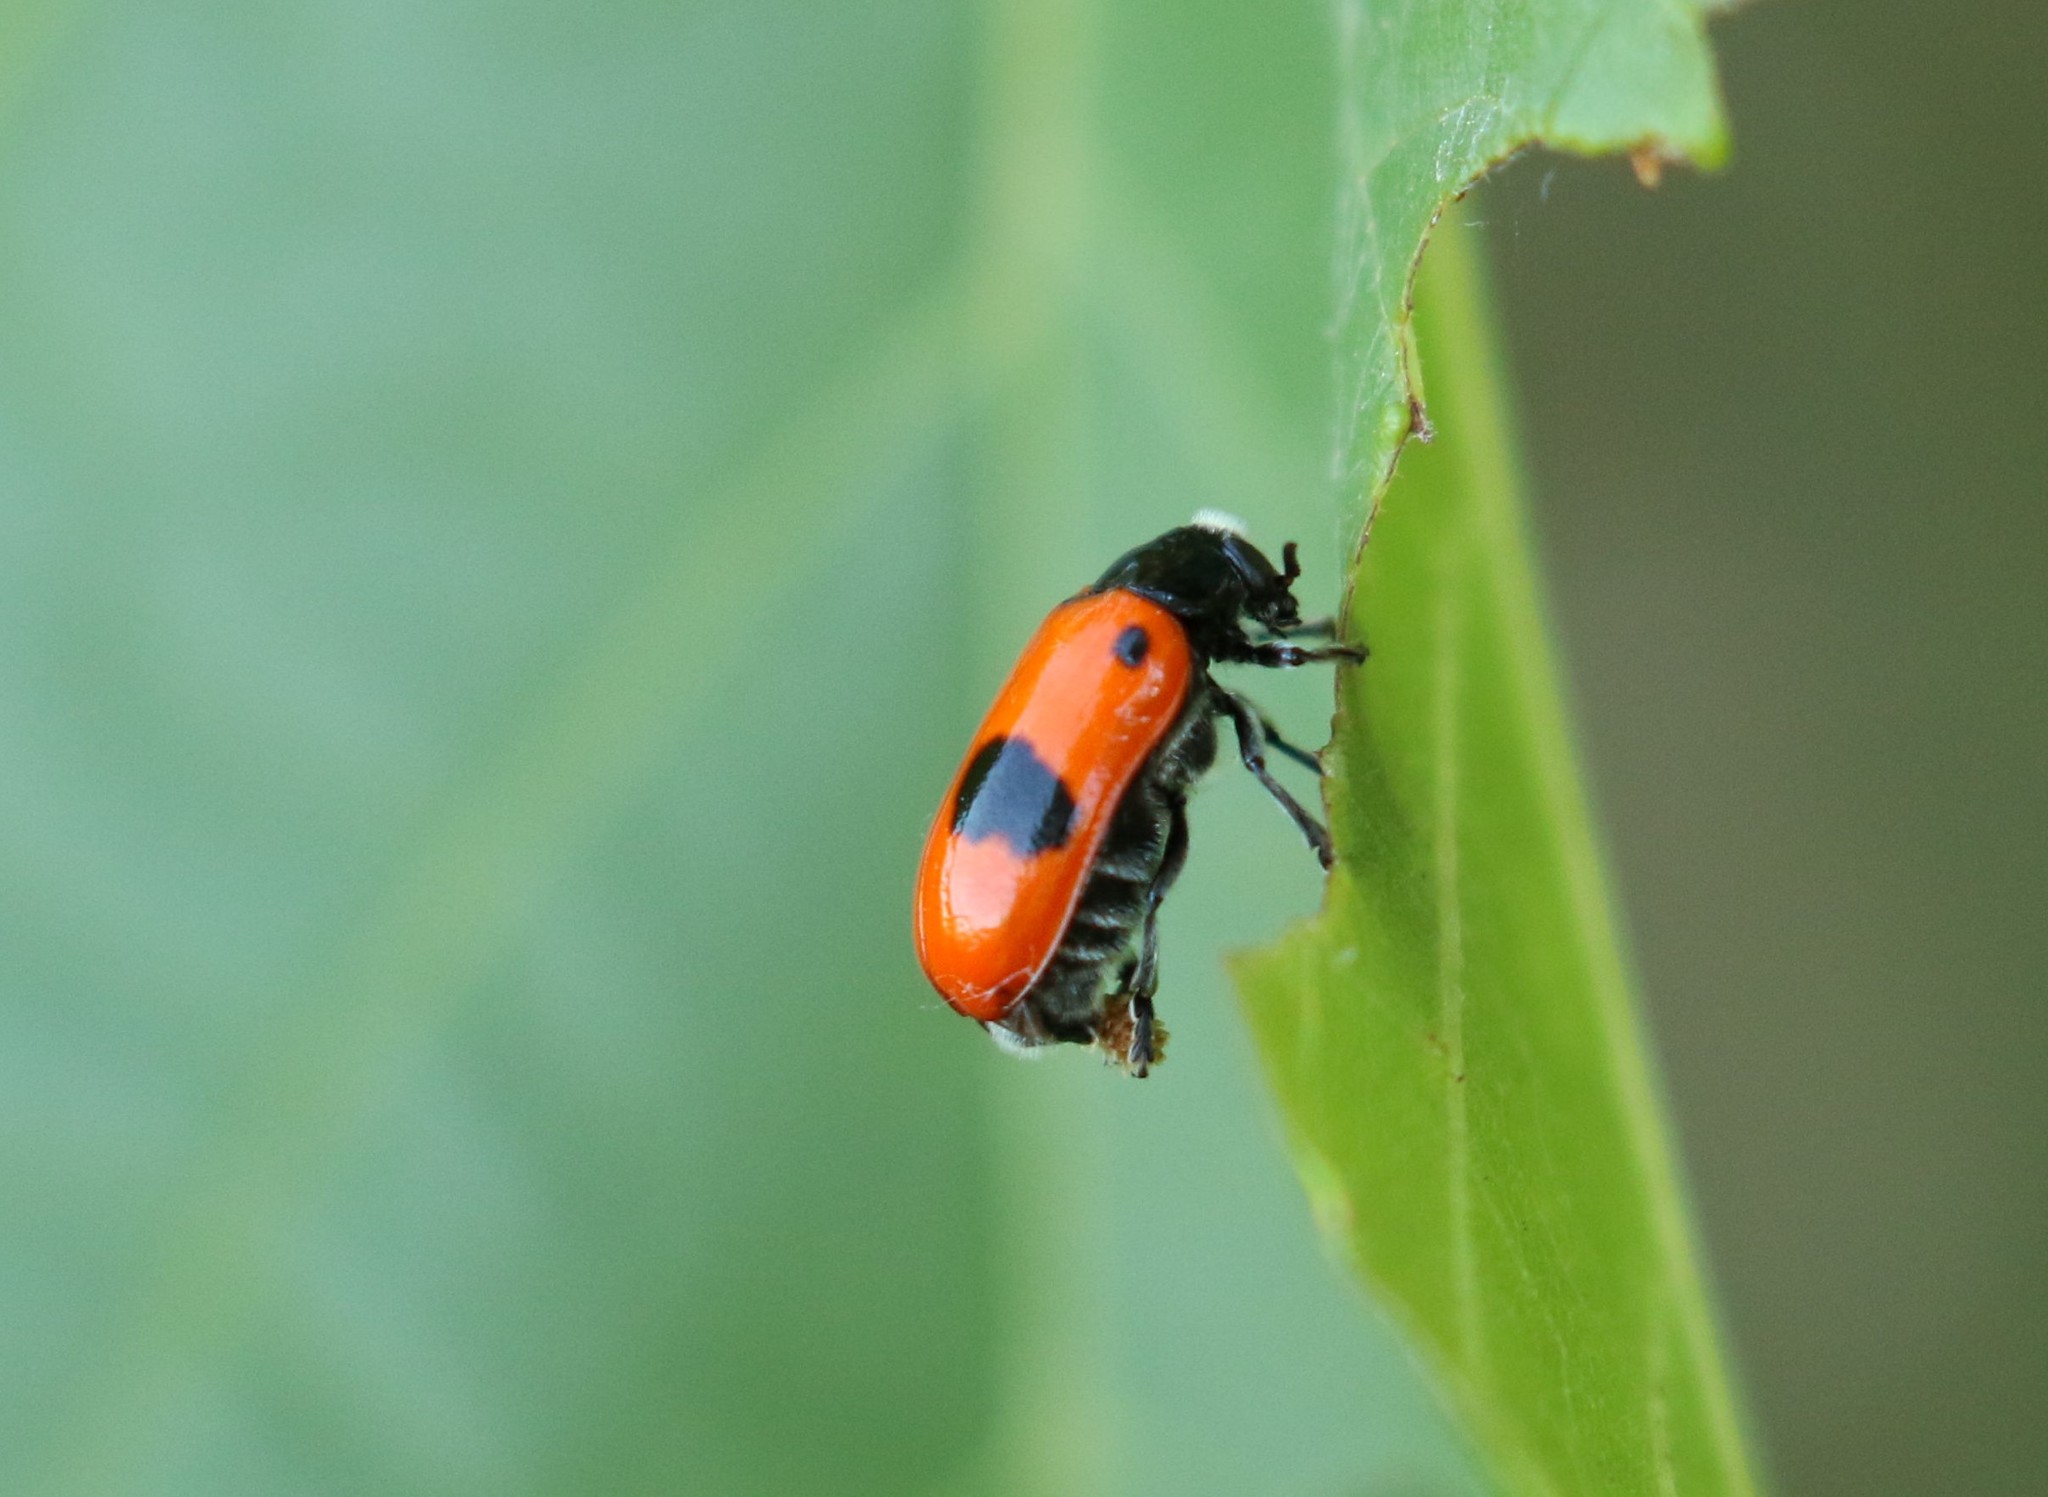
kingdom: Animalia
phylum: Arthropoda
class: Insecta
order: Coleoptera
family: Chrysomelidae
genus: Clytra
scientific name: Clytra laeviuscula
